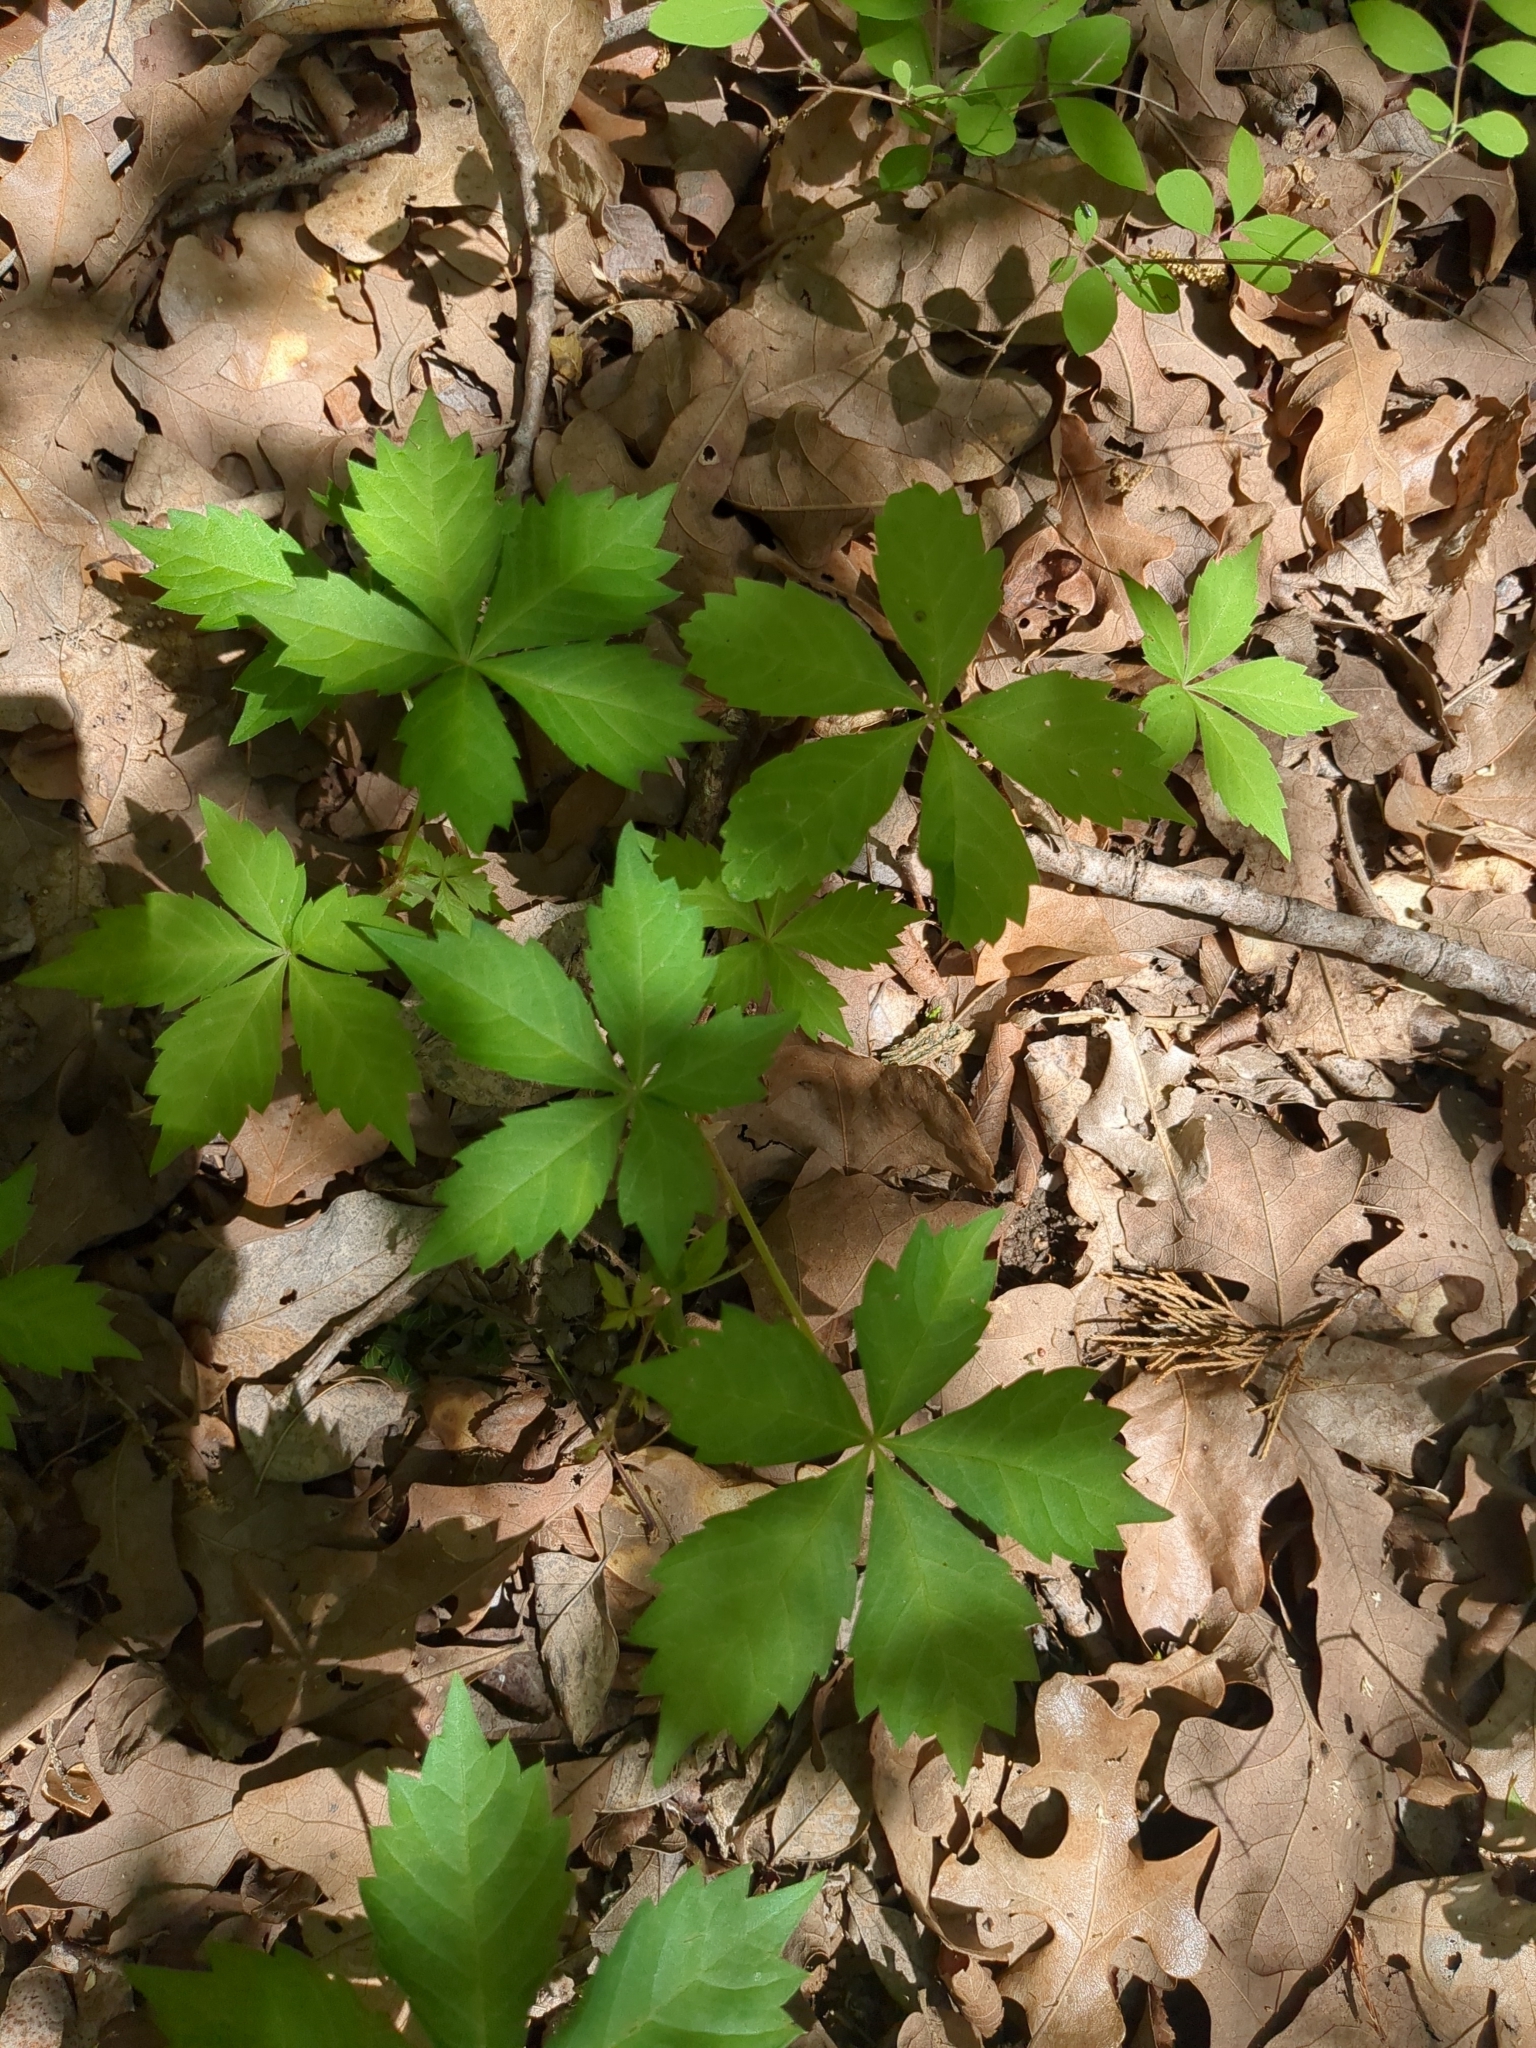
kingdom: Plantae
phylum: Tracheophyta
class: Magnoliopsida
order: Vitales
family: Vitaceae
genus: Parthenocissus
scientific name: Parthenocissus quinquefolia
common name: Virginia-creeper
